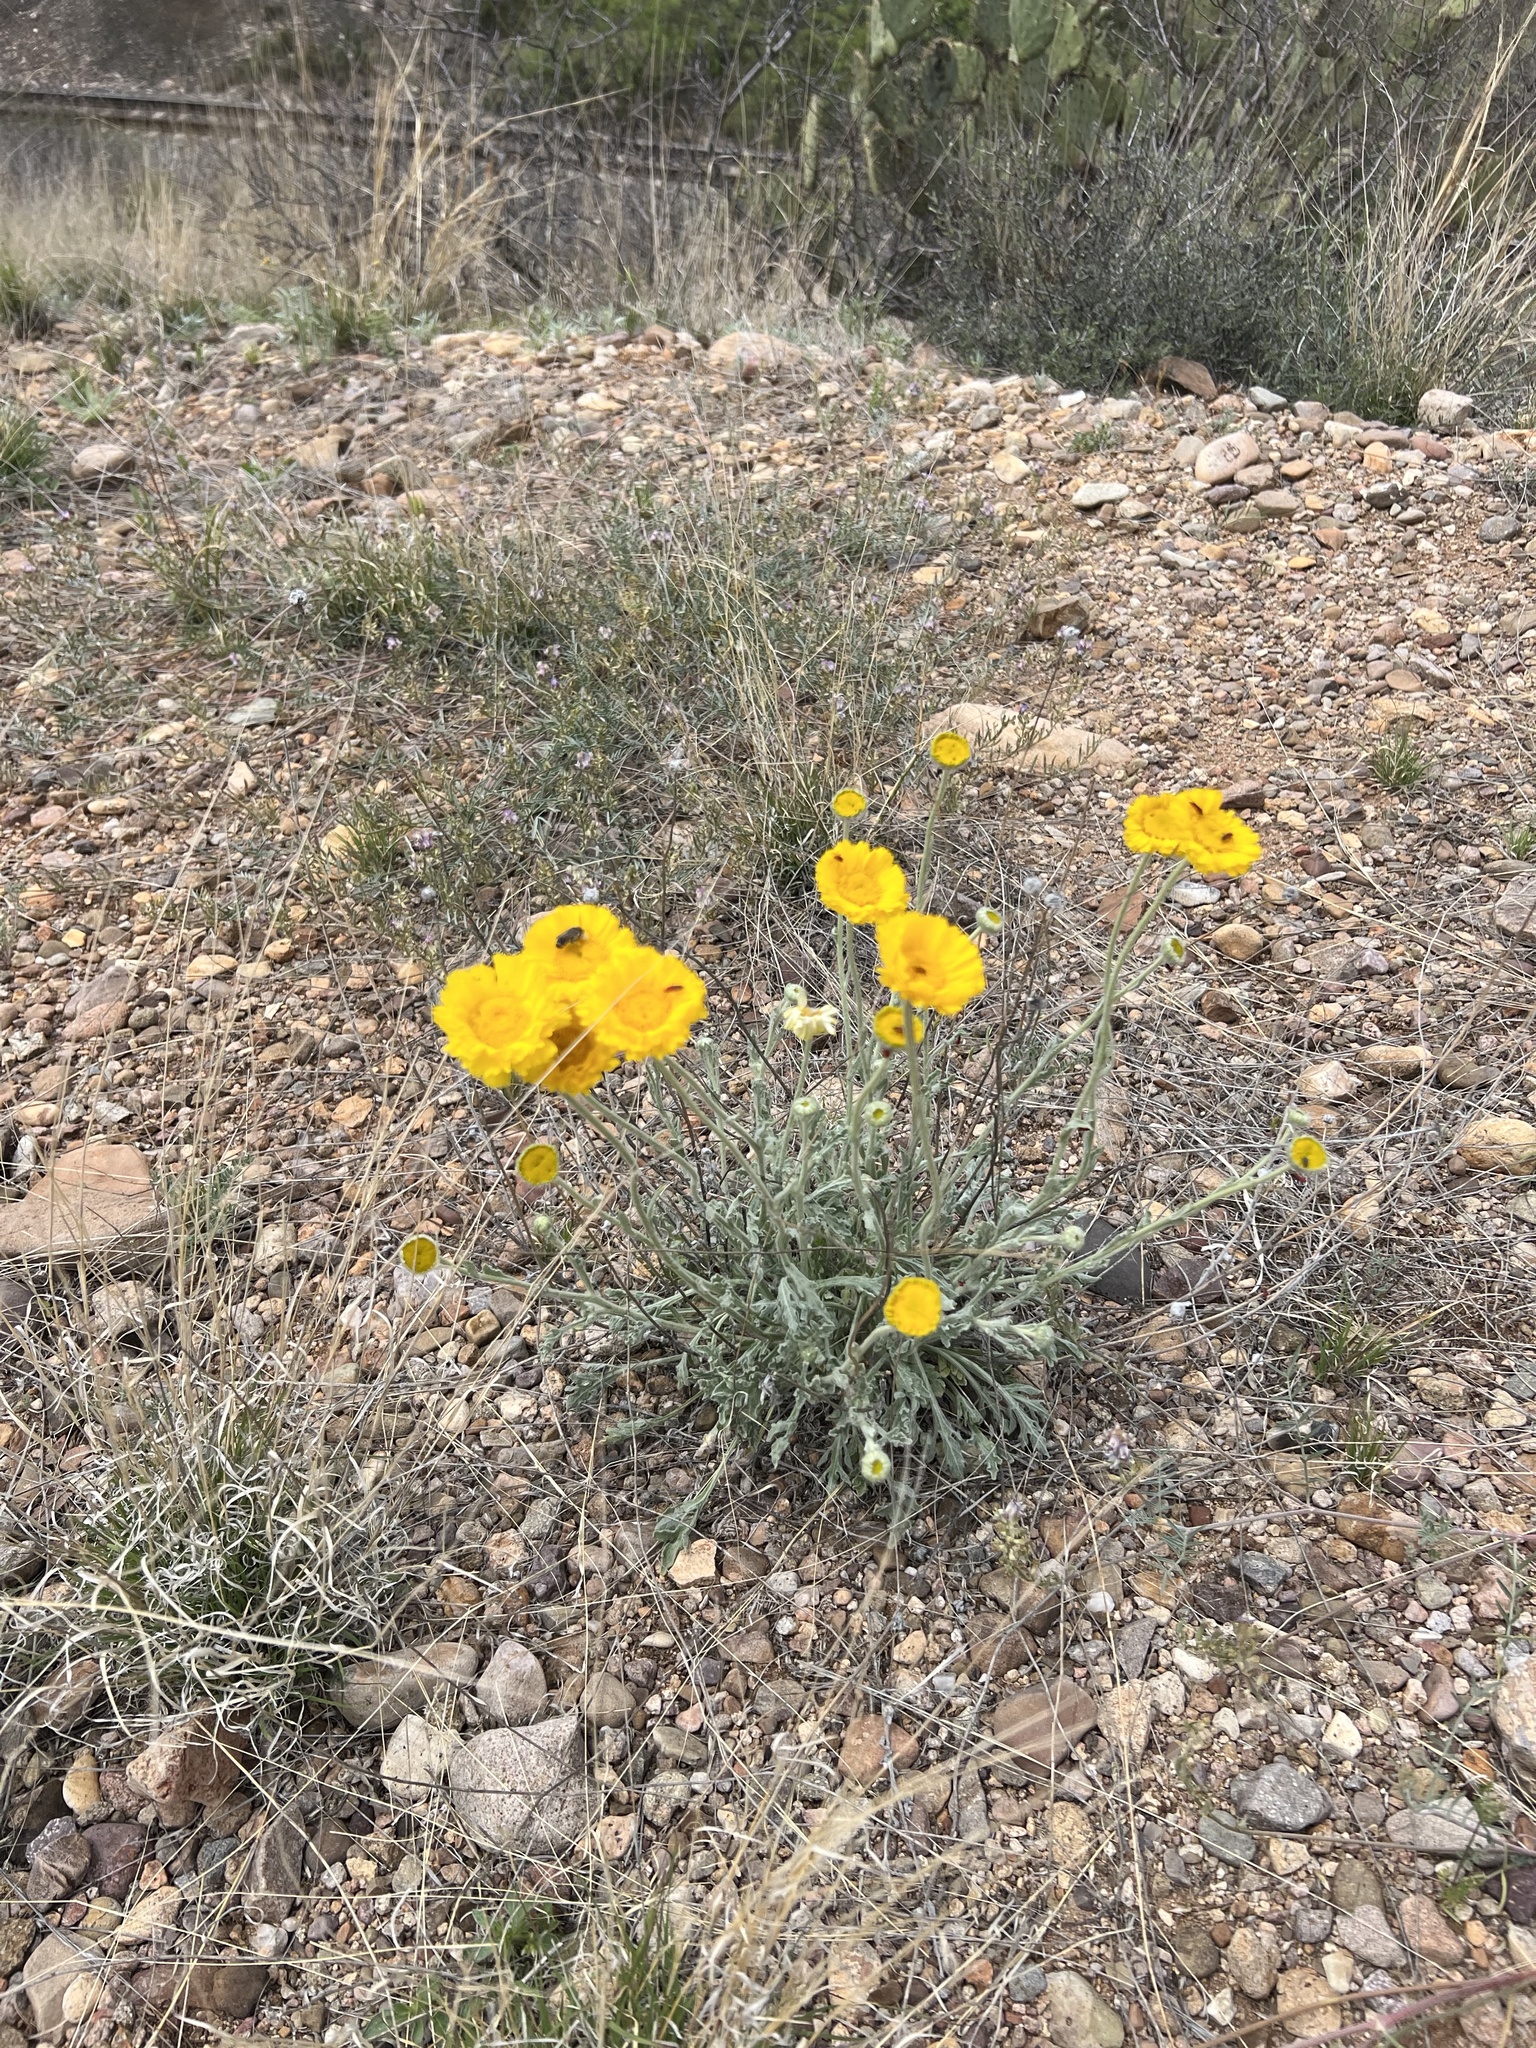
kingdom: Plantae
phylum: Tracheophyta
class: Magnoliopsida
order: Asterales
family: Asteraceae
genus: Baileya
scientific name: Baileya multiradiata
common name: Desert-marigold
